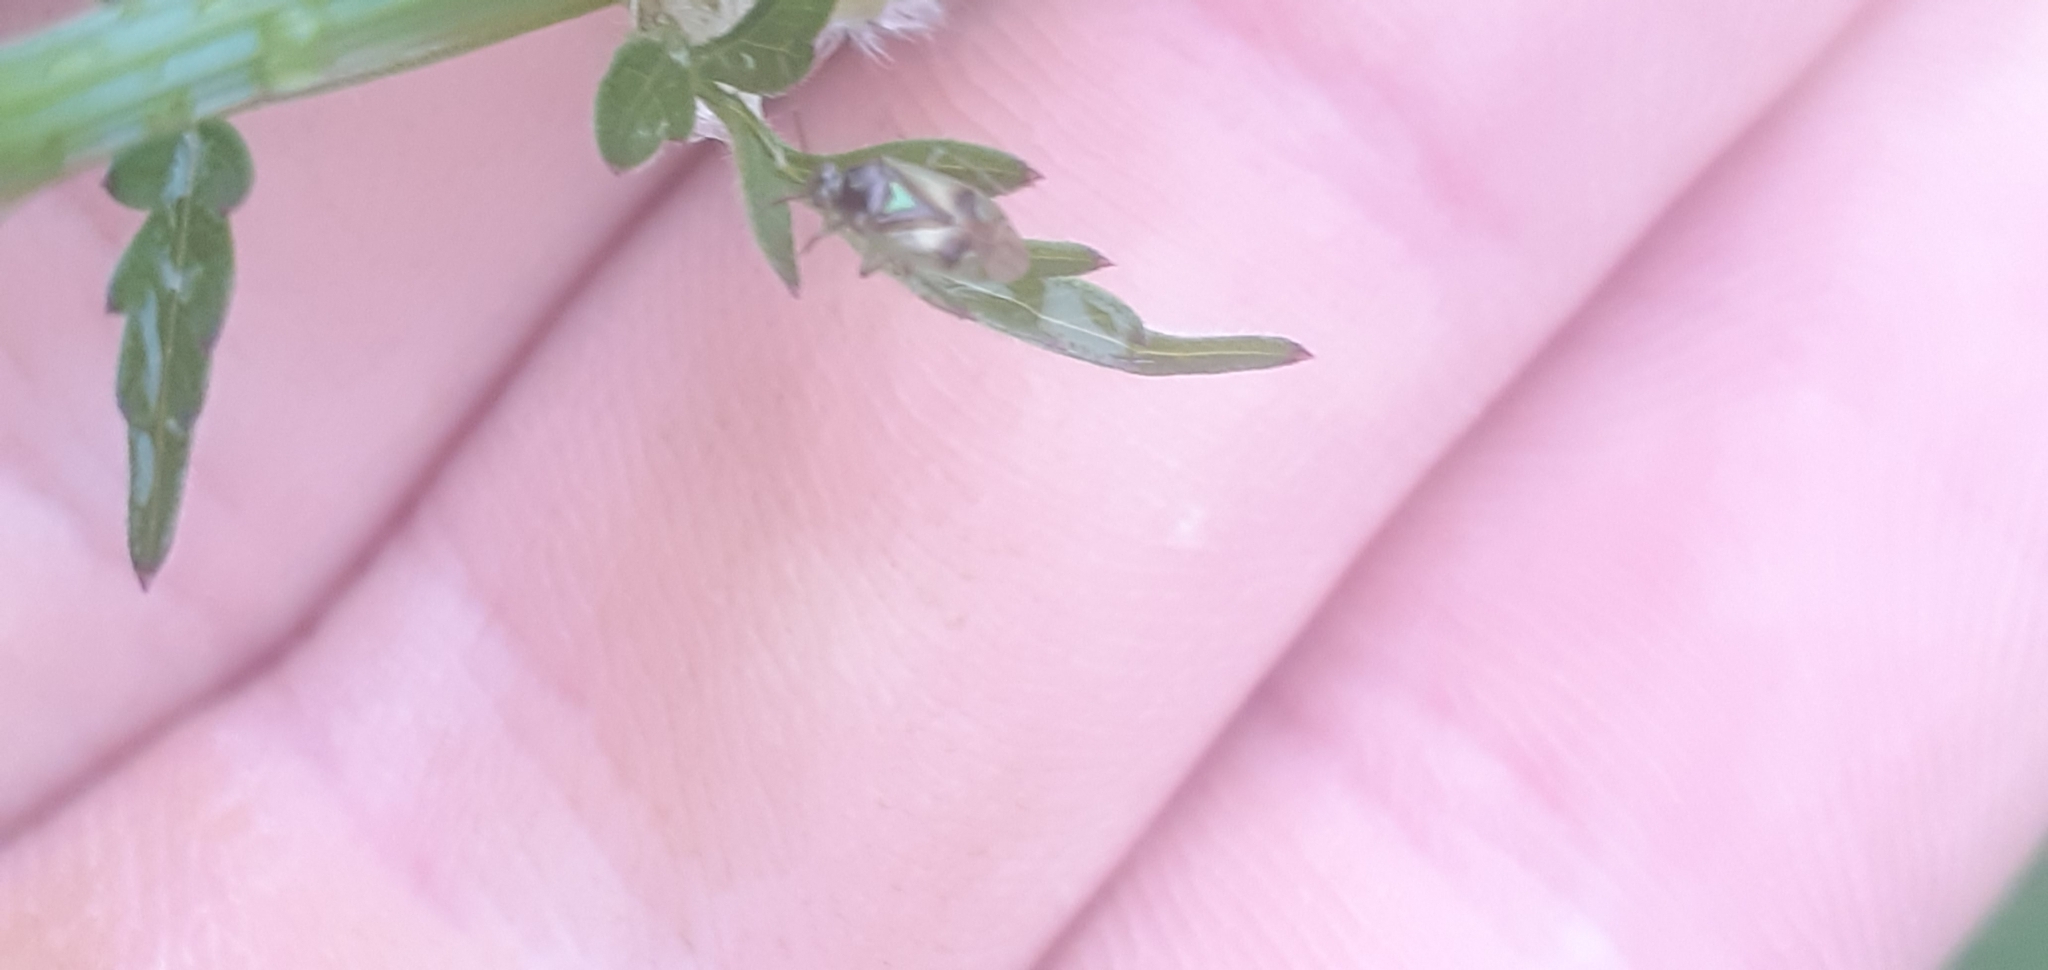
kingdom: Animalia
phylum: Arthropoda
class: Insecta
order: Hemiptera
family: Miridae
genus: Orthops
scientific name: Orthops campestris
